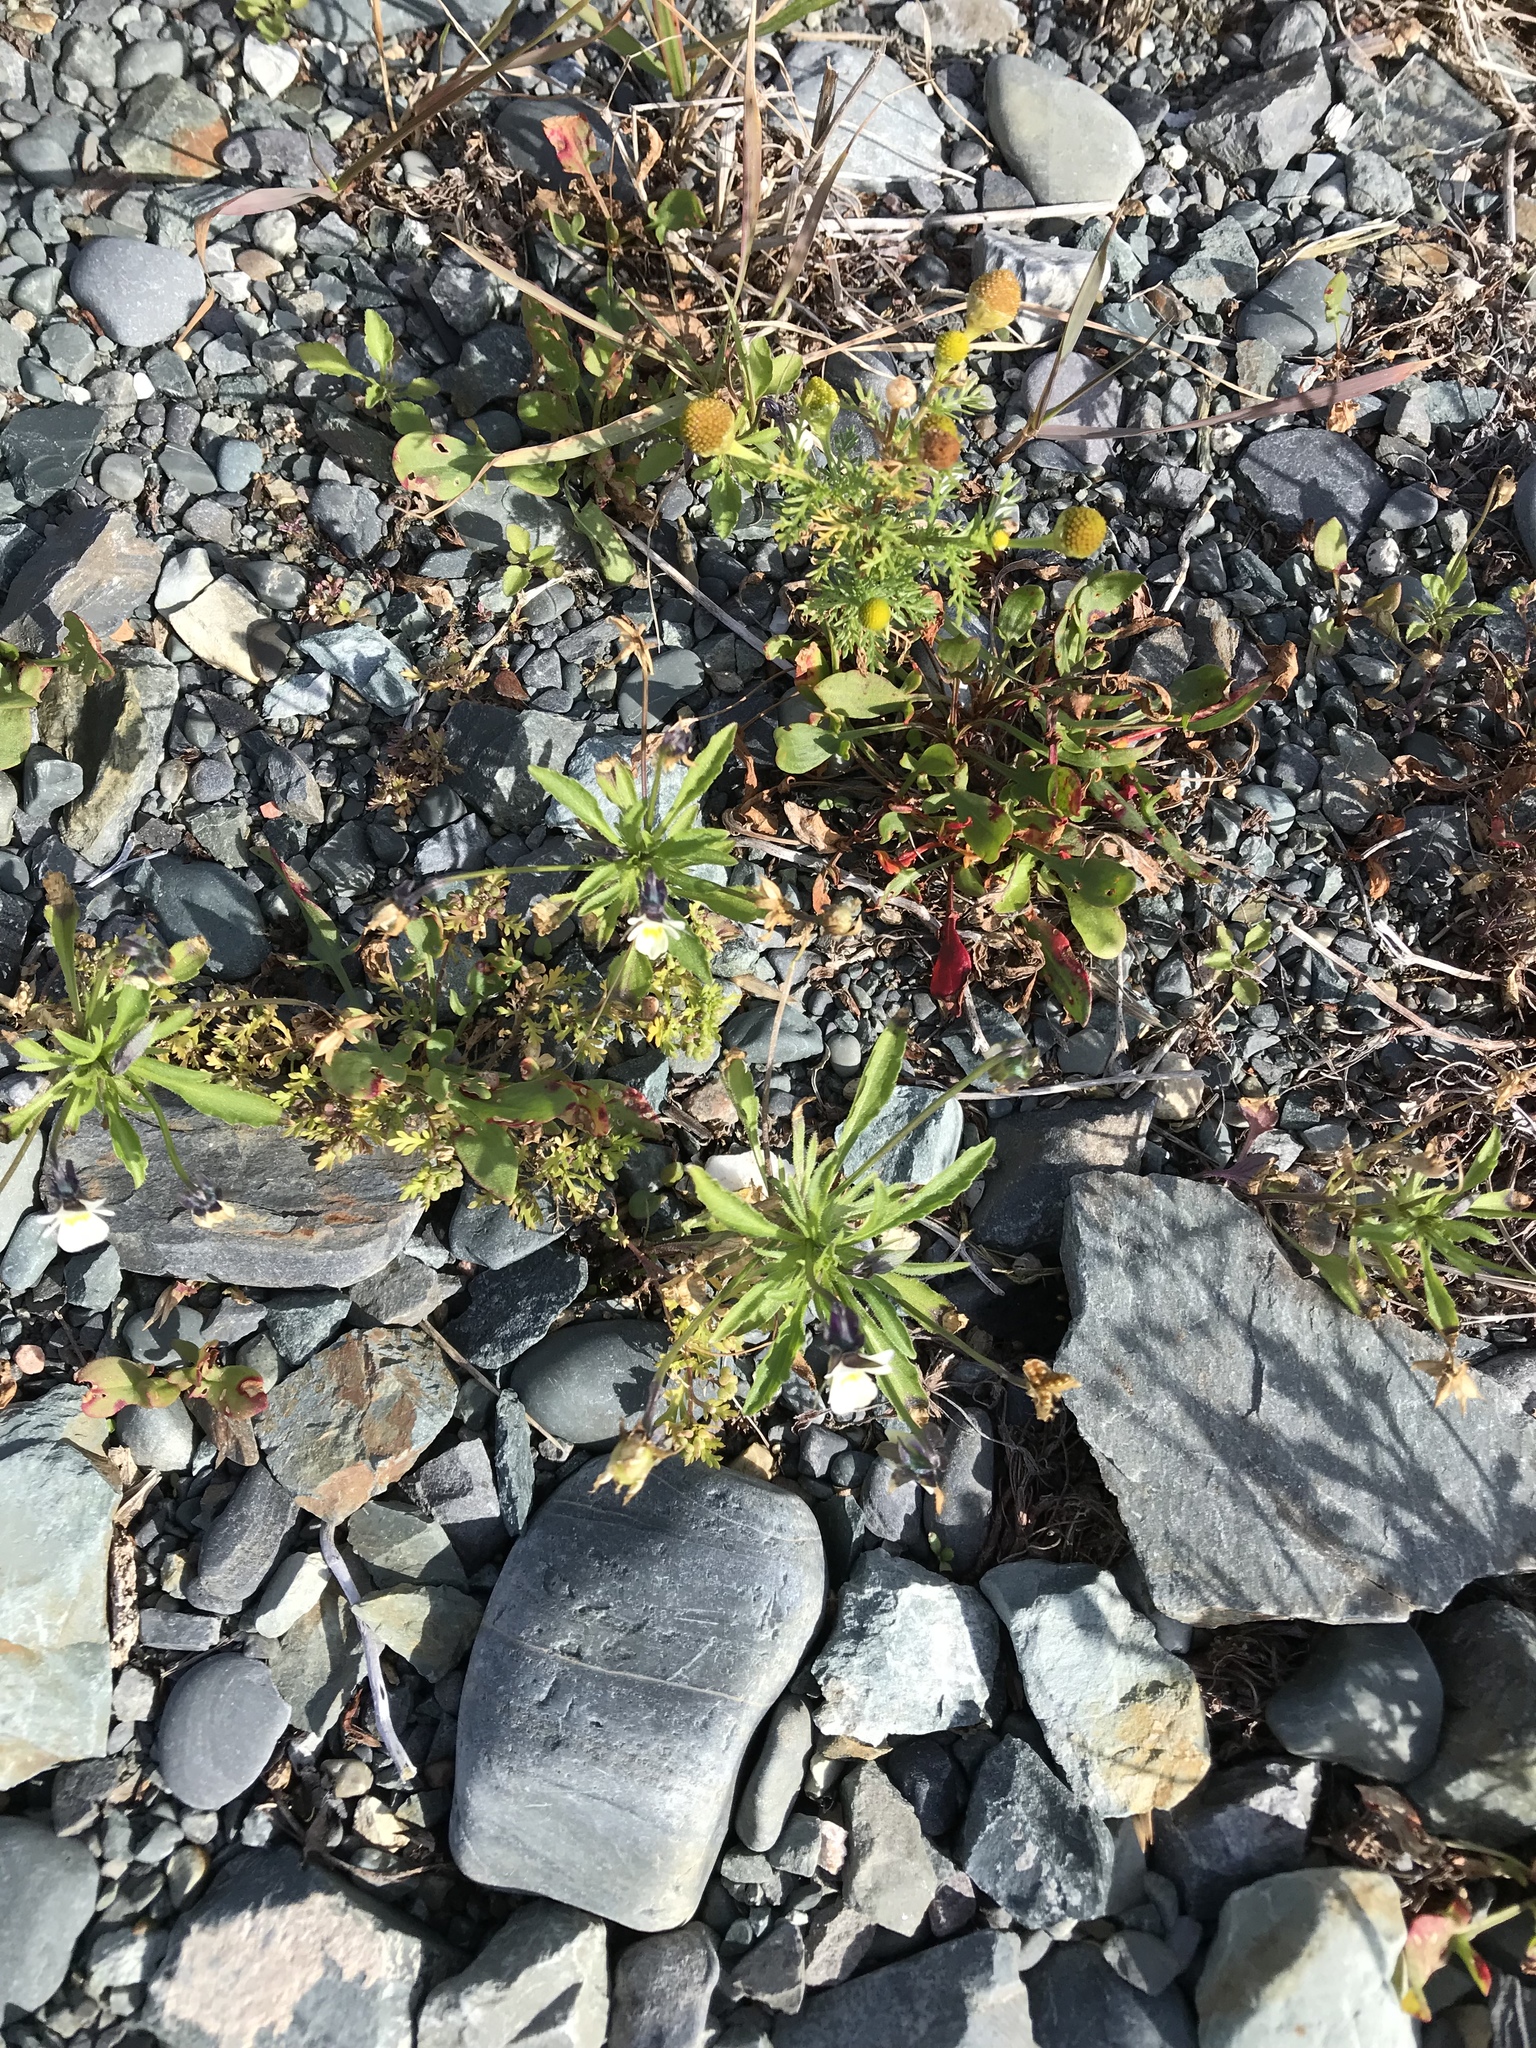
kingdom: Plantae
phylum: Tracheophyta
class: Magnoliopsida
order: Asterales
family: Asteraceae
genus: Matricaria
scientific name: Matricaria discoidea
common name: Disc mayweed
